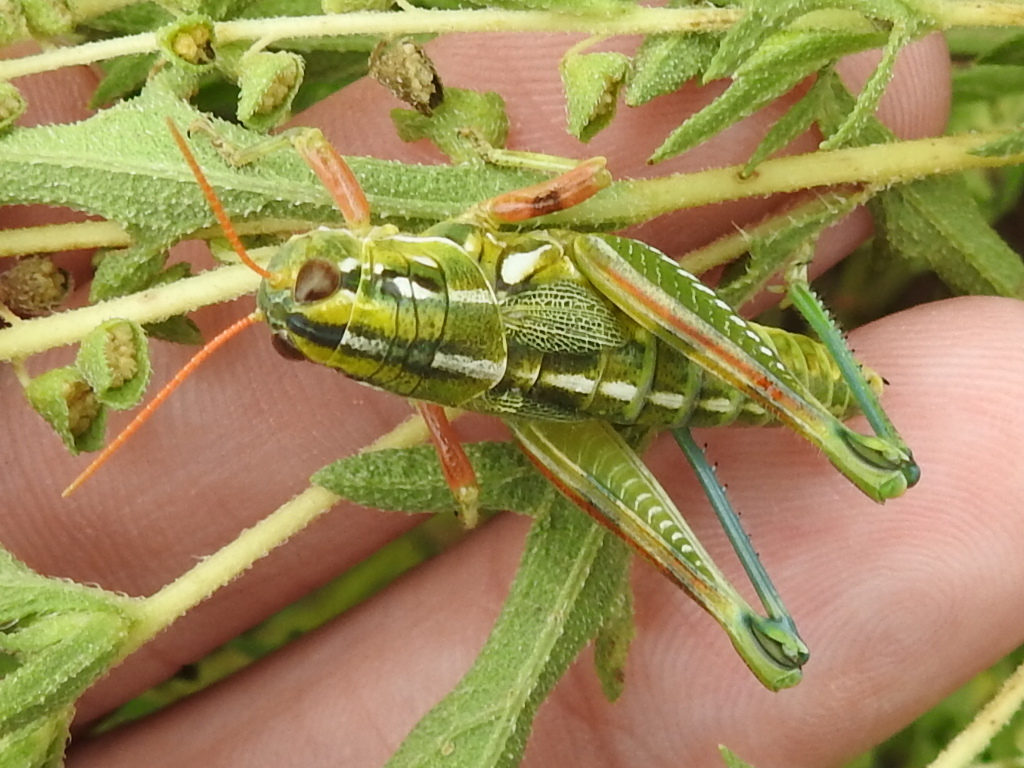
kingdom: Animalia
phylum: Arthropoda
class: Insecta
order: Orthoptera
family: Acrididae
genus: Campylacantha
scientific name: Campylacantha olivacea
